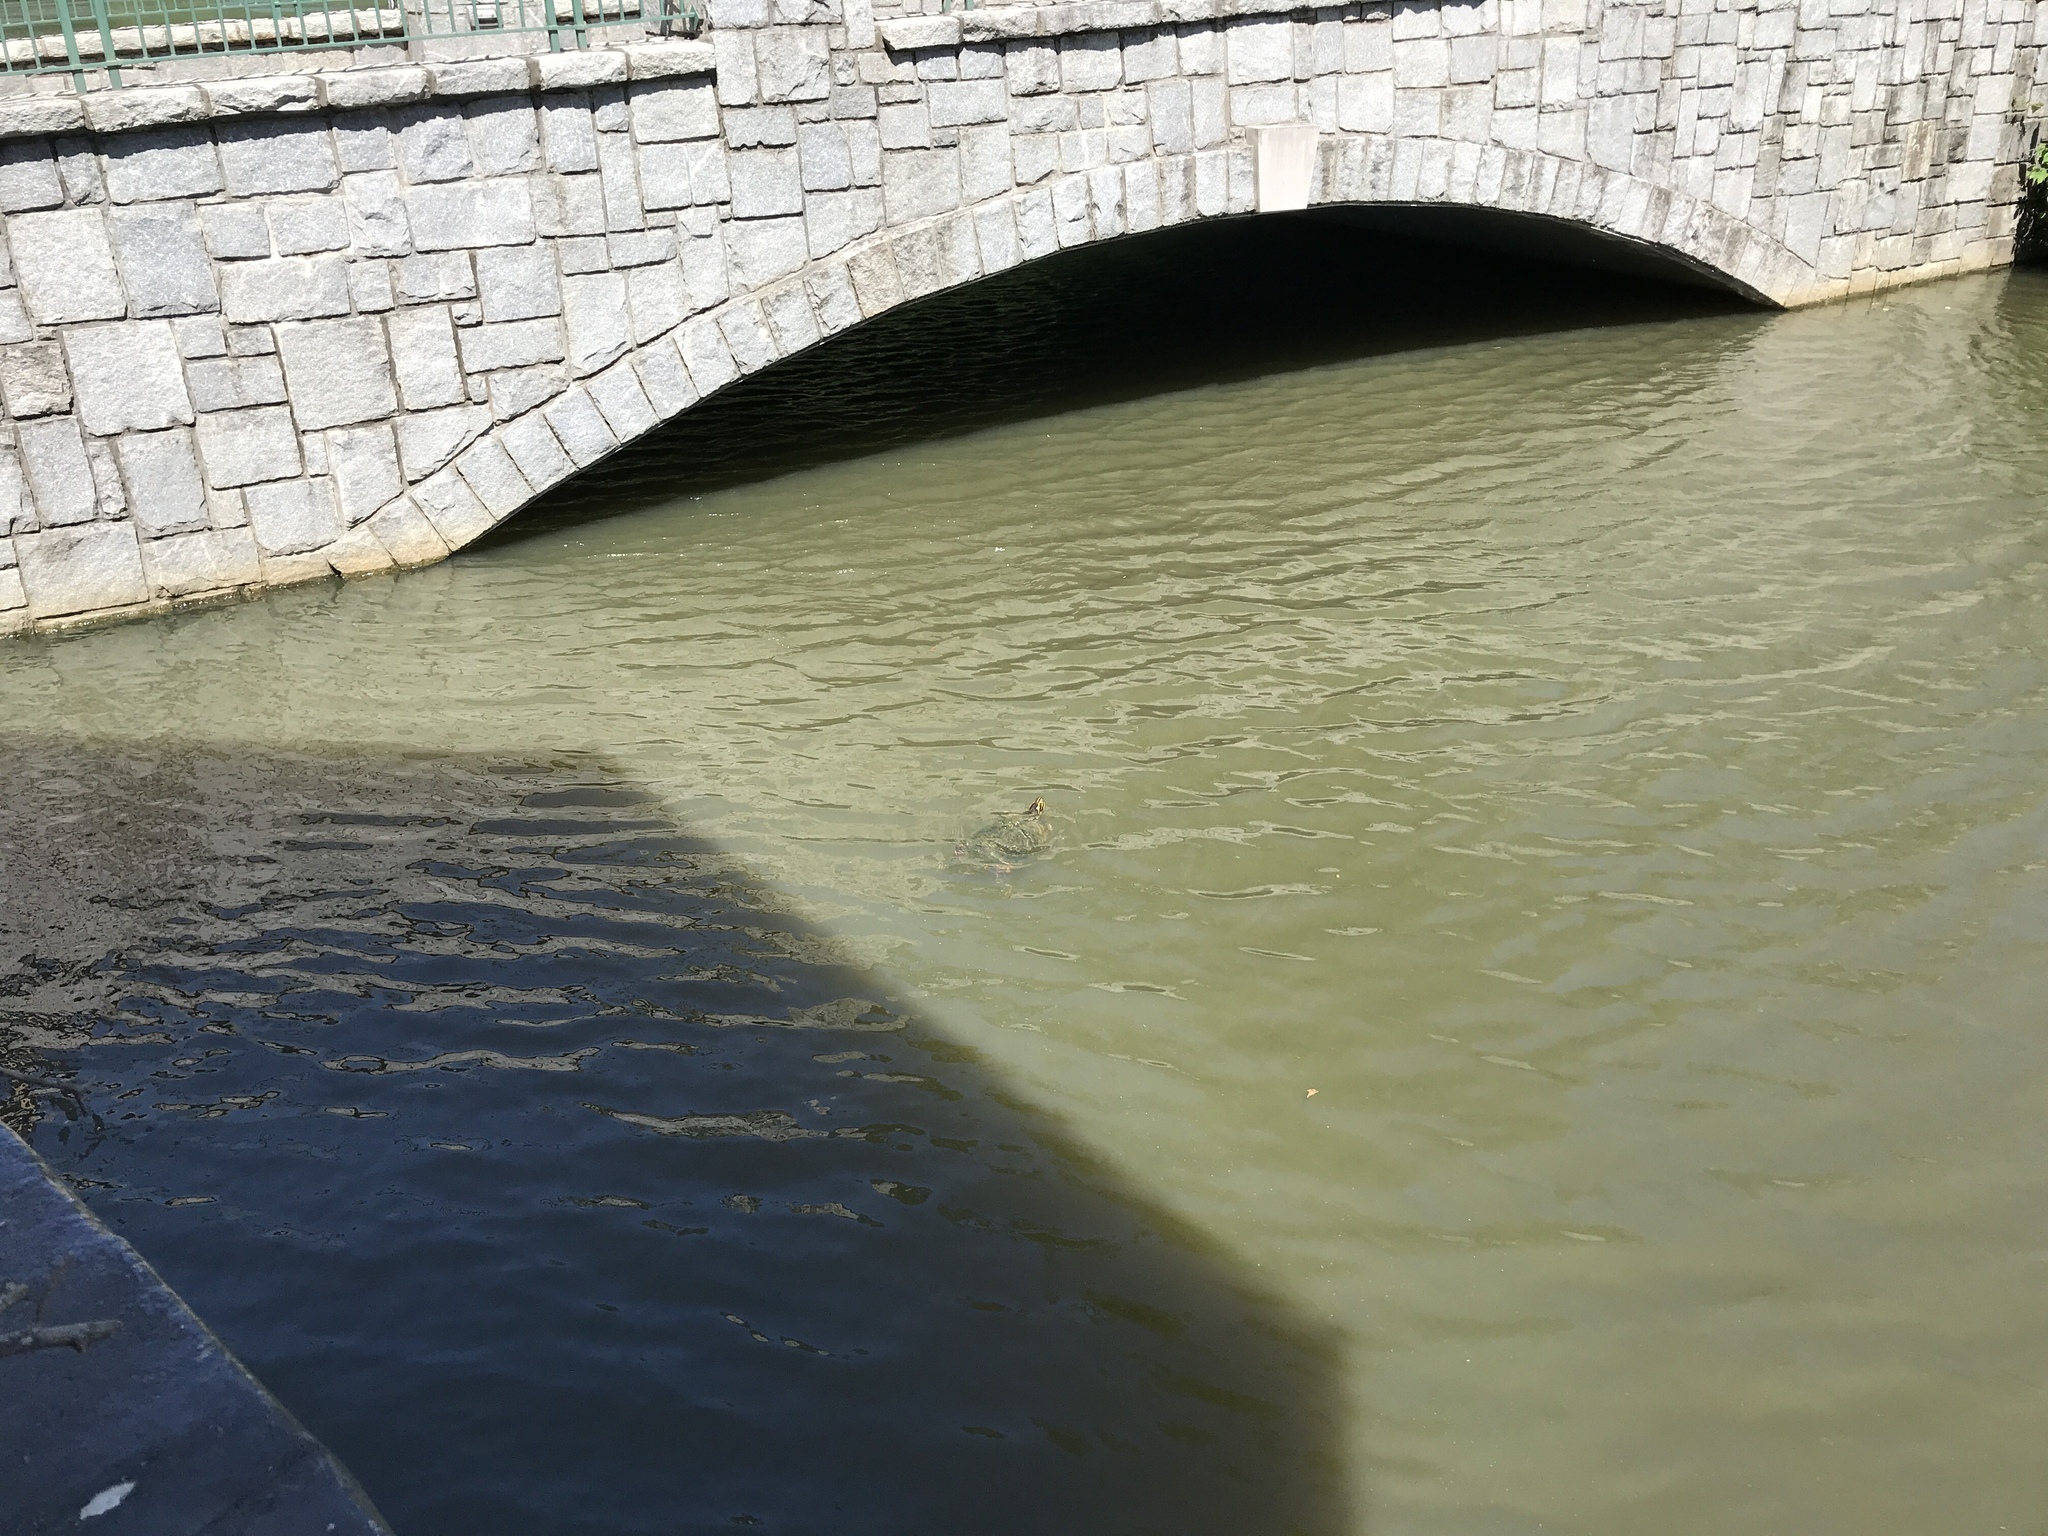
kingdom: Animalia
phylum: Chordata
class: Testudines
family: Emydidae
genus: Pseudemys
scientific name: Pseudemys concinna
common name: Eastern river cooter
